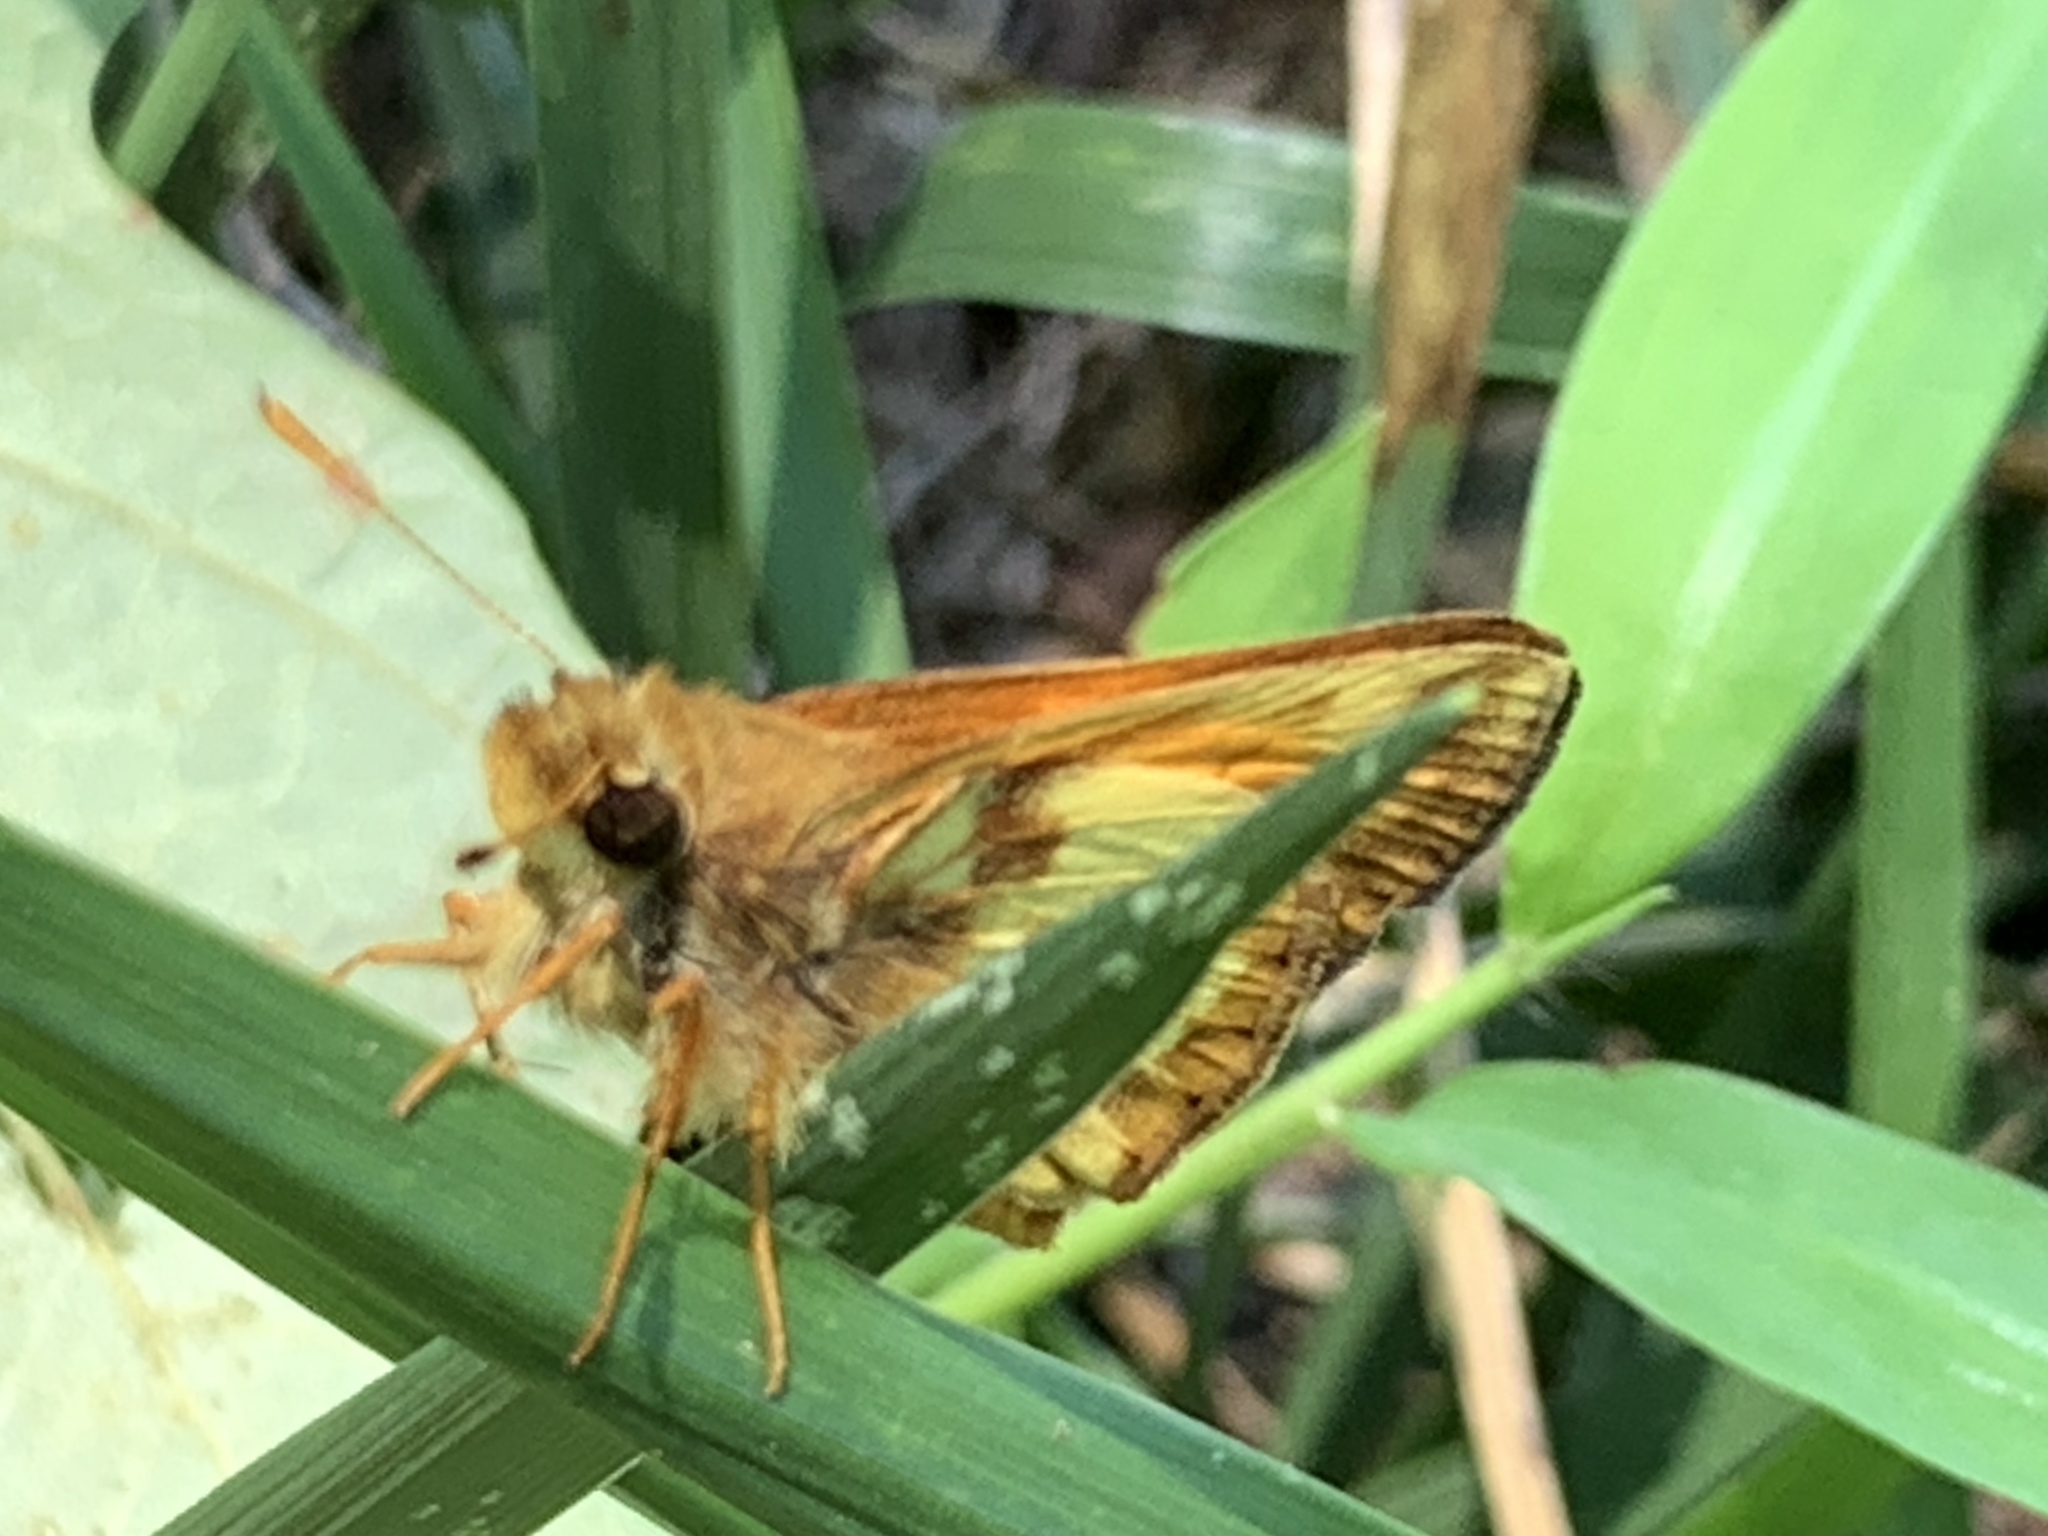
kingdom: Animalia
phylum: Arthropoda
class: Insecta
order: Lepidoptera
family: Hesperiidae
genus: Lon
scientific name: Lon zabulon
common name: Zabulon skipper
